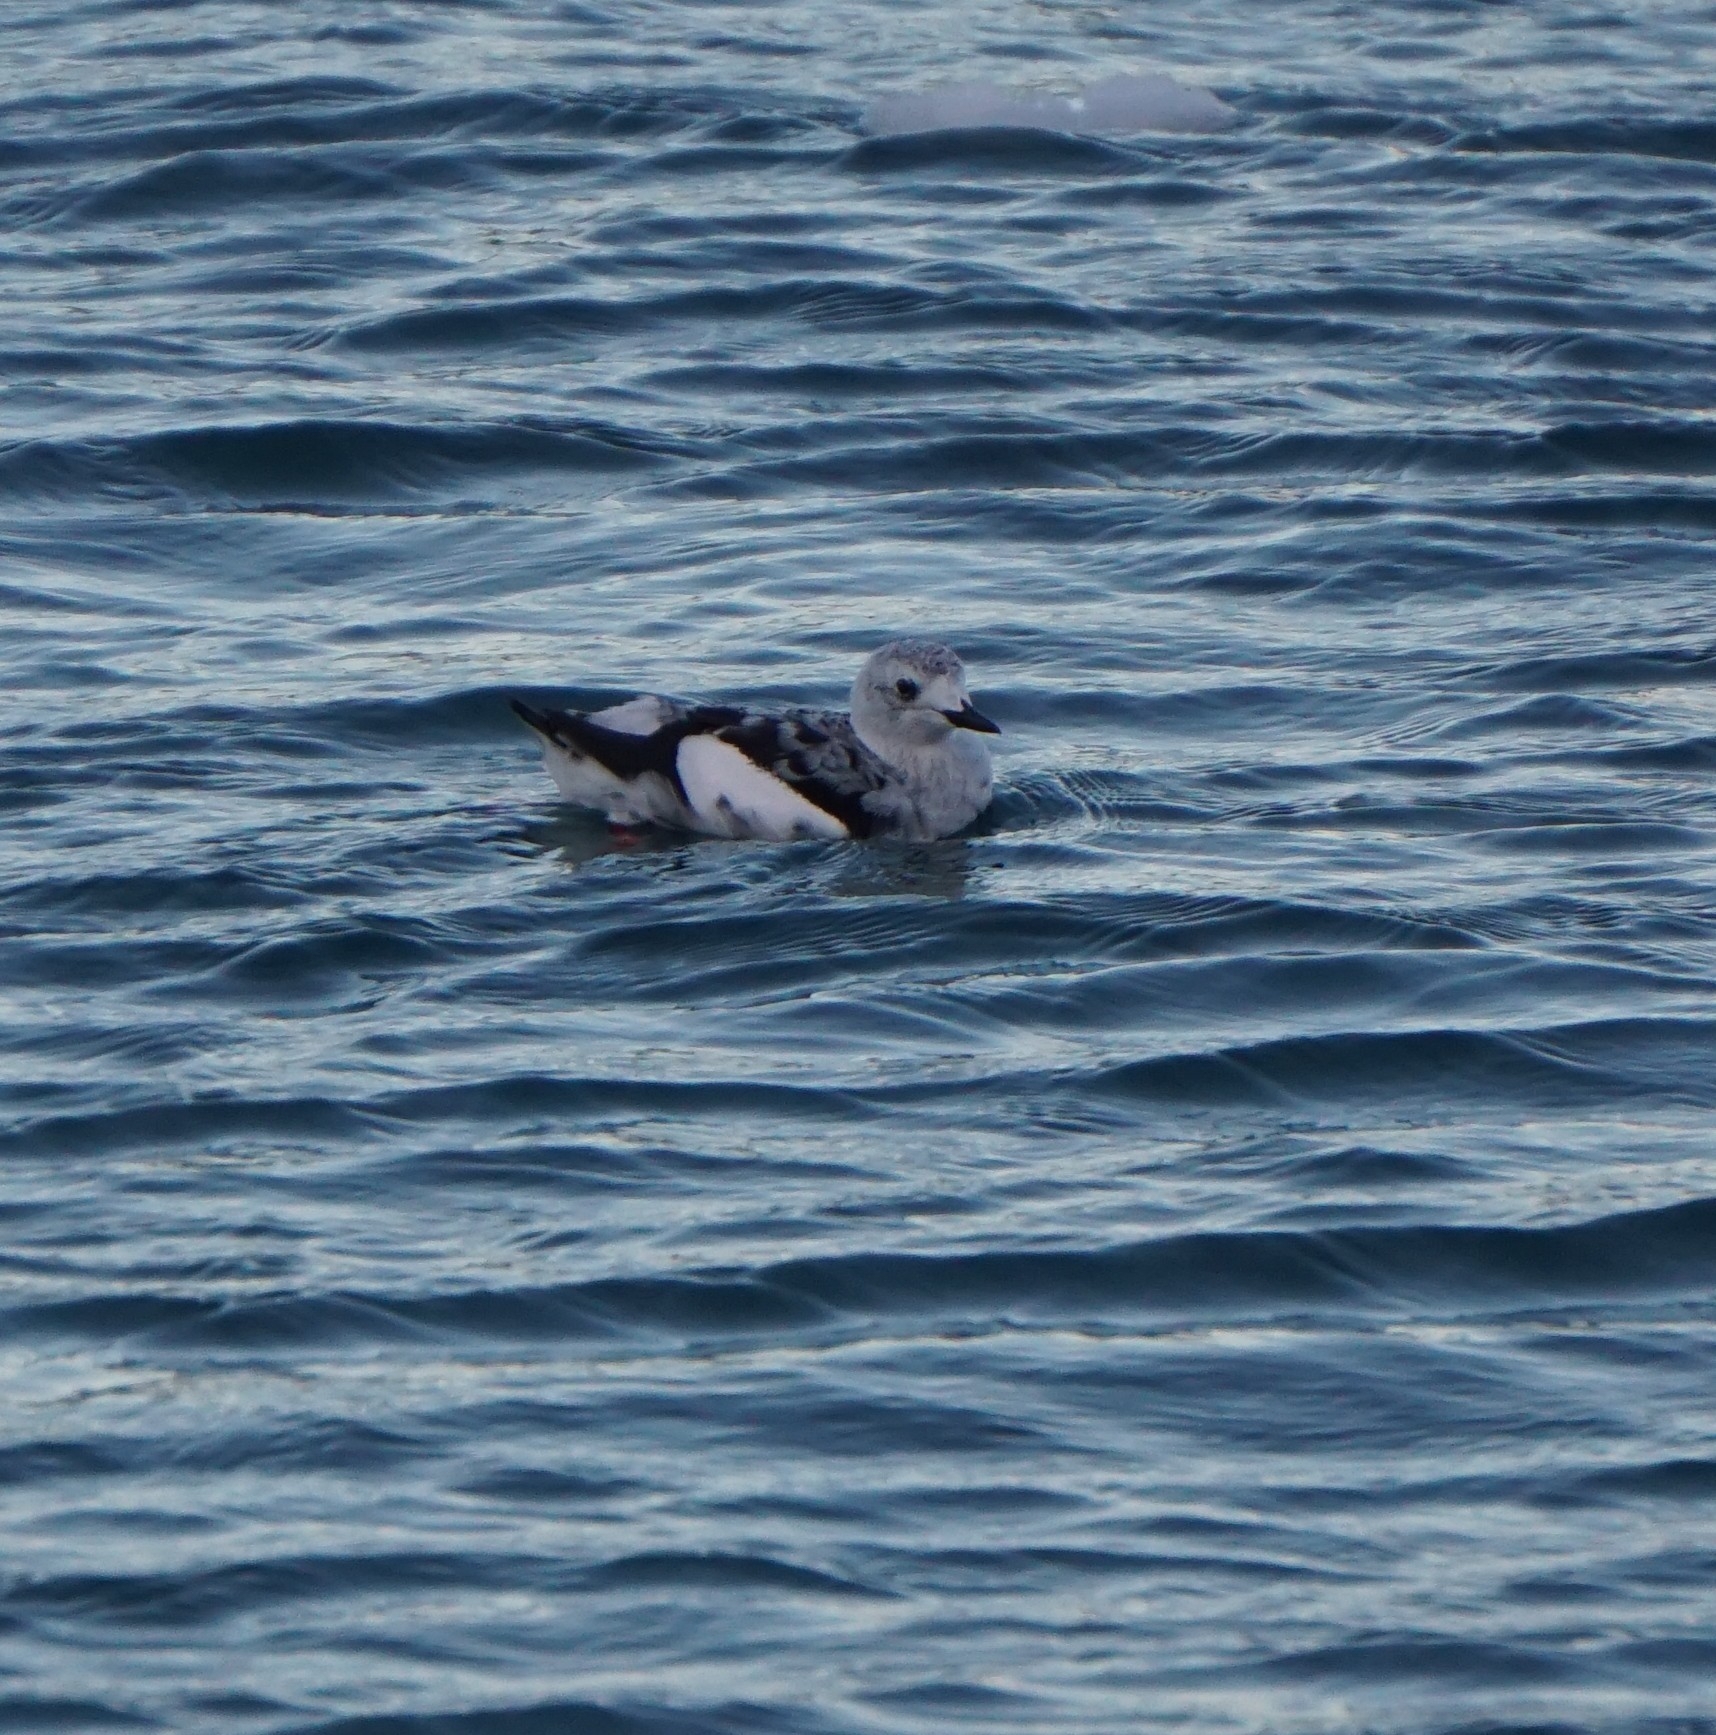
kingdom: Animalia
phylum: Chordata
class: Aves
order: Charadriiformes
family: Alcidae
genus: Cepphus
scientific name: Cepphus grylle
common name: Black guillemot
